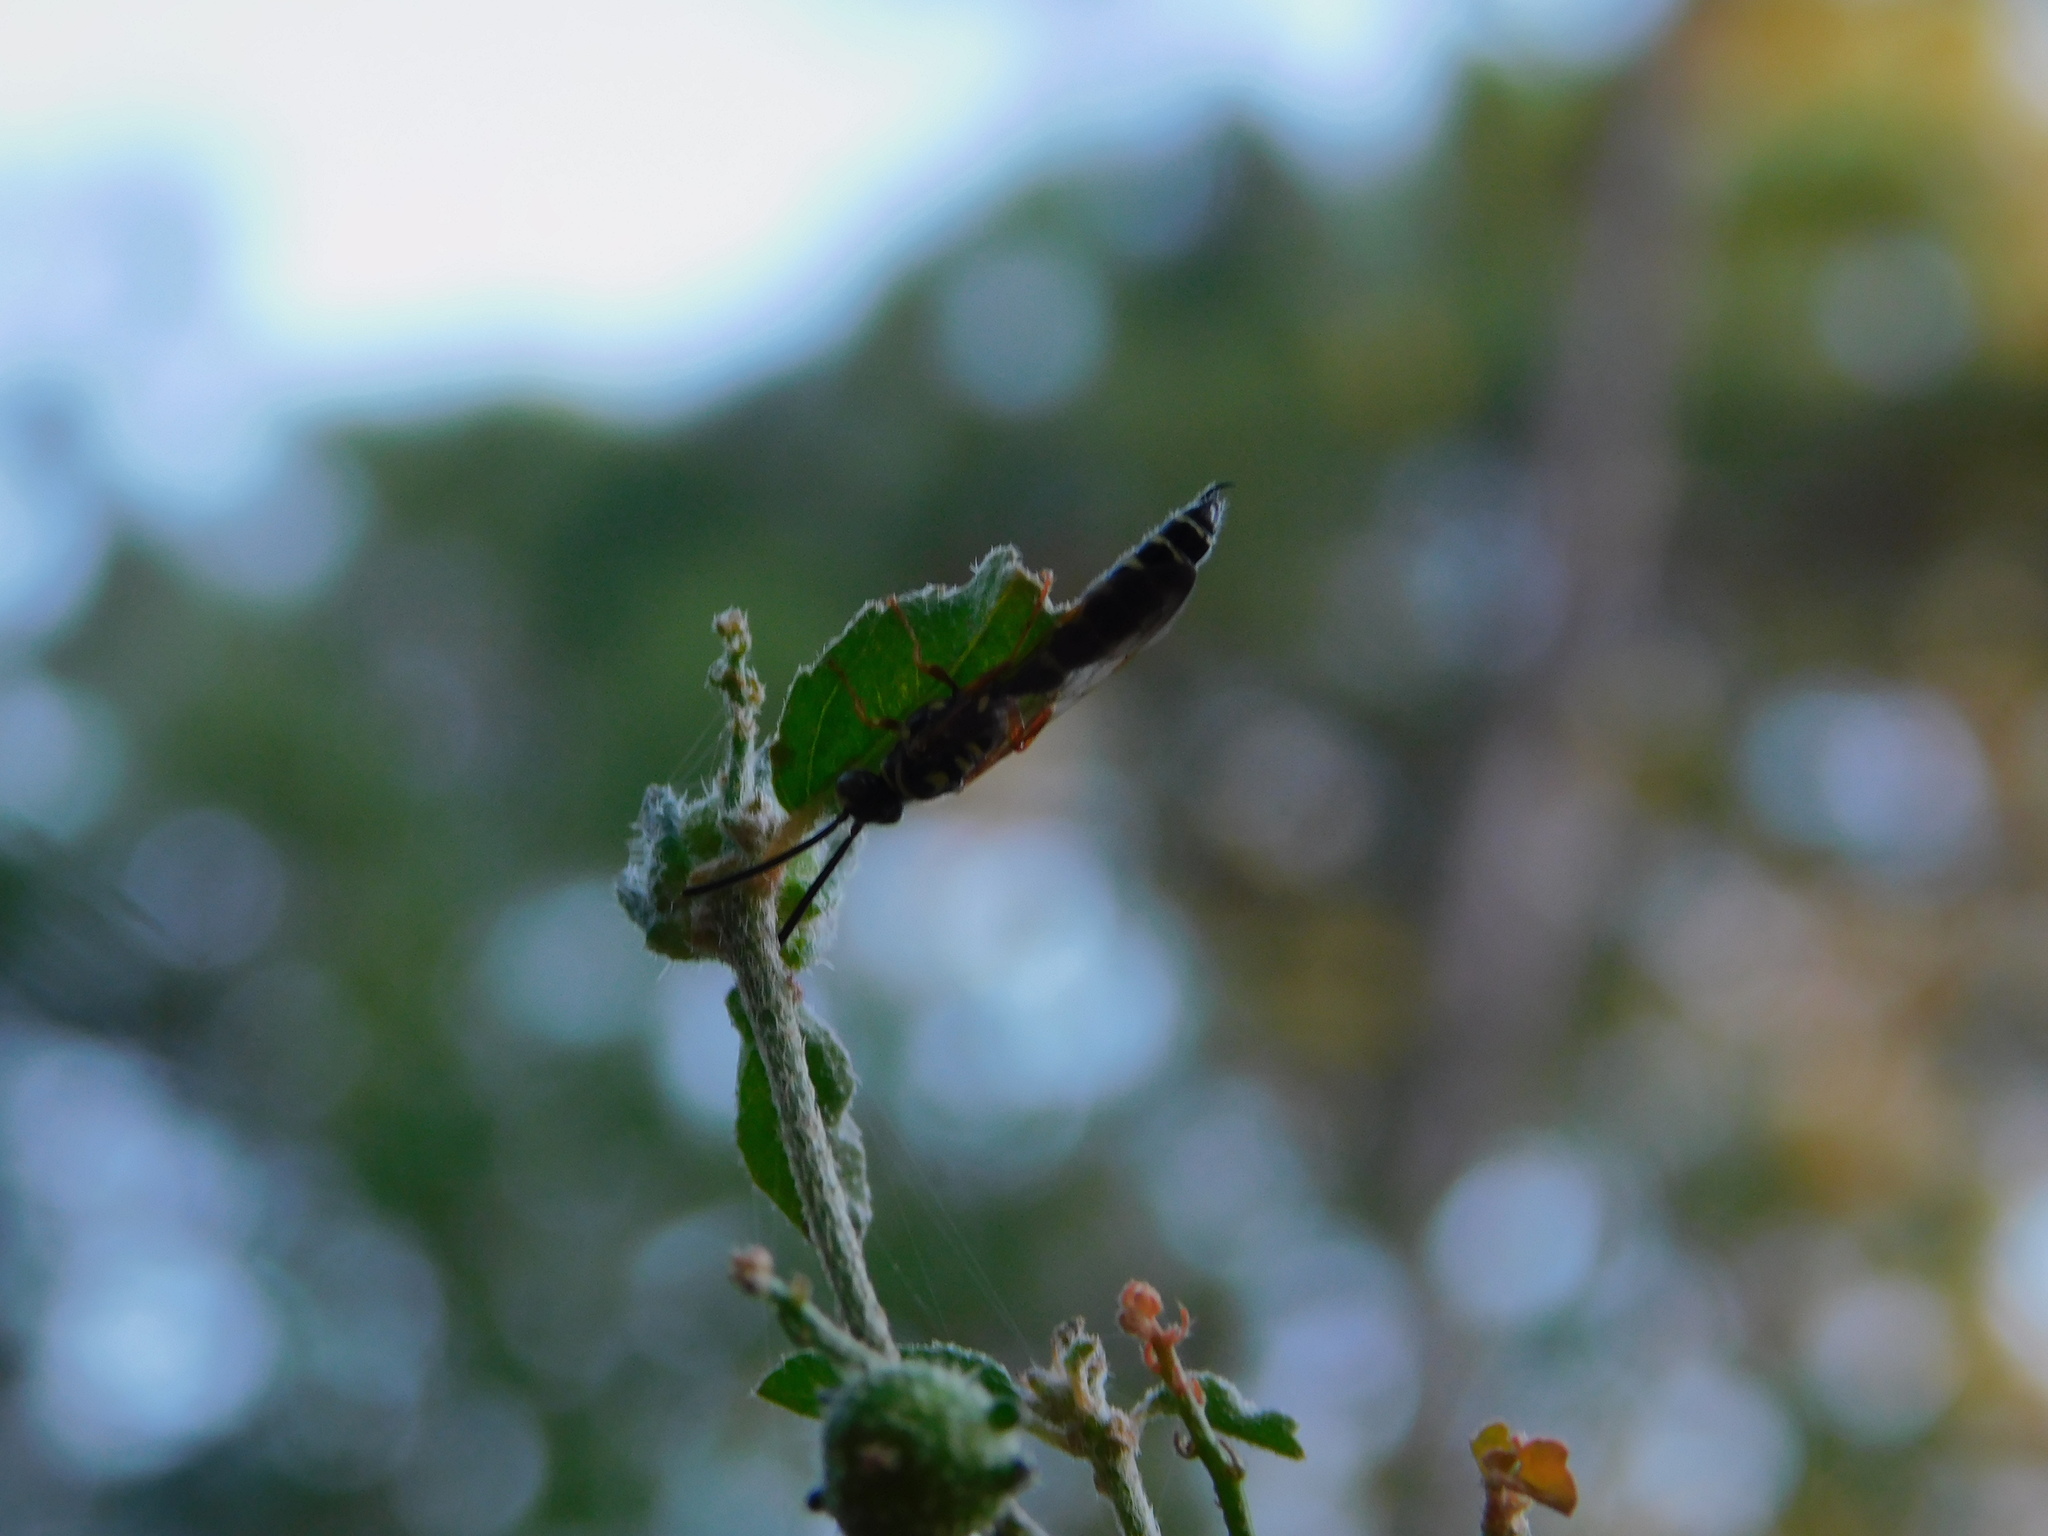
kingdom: Animalia
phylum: Arthropoda
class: Insecta
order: Hymenoptera
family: Tiphiidae
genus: Myzinum
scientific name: Myzinum
